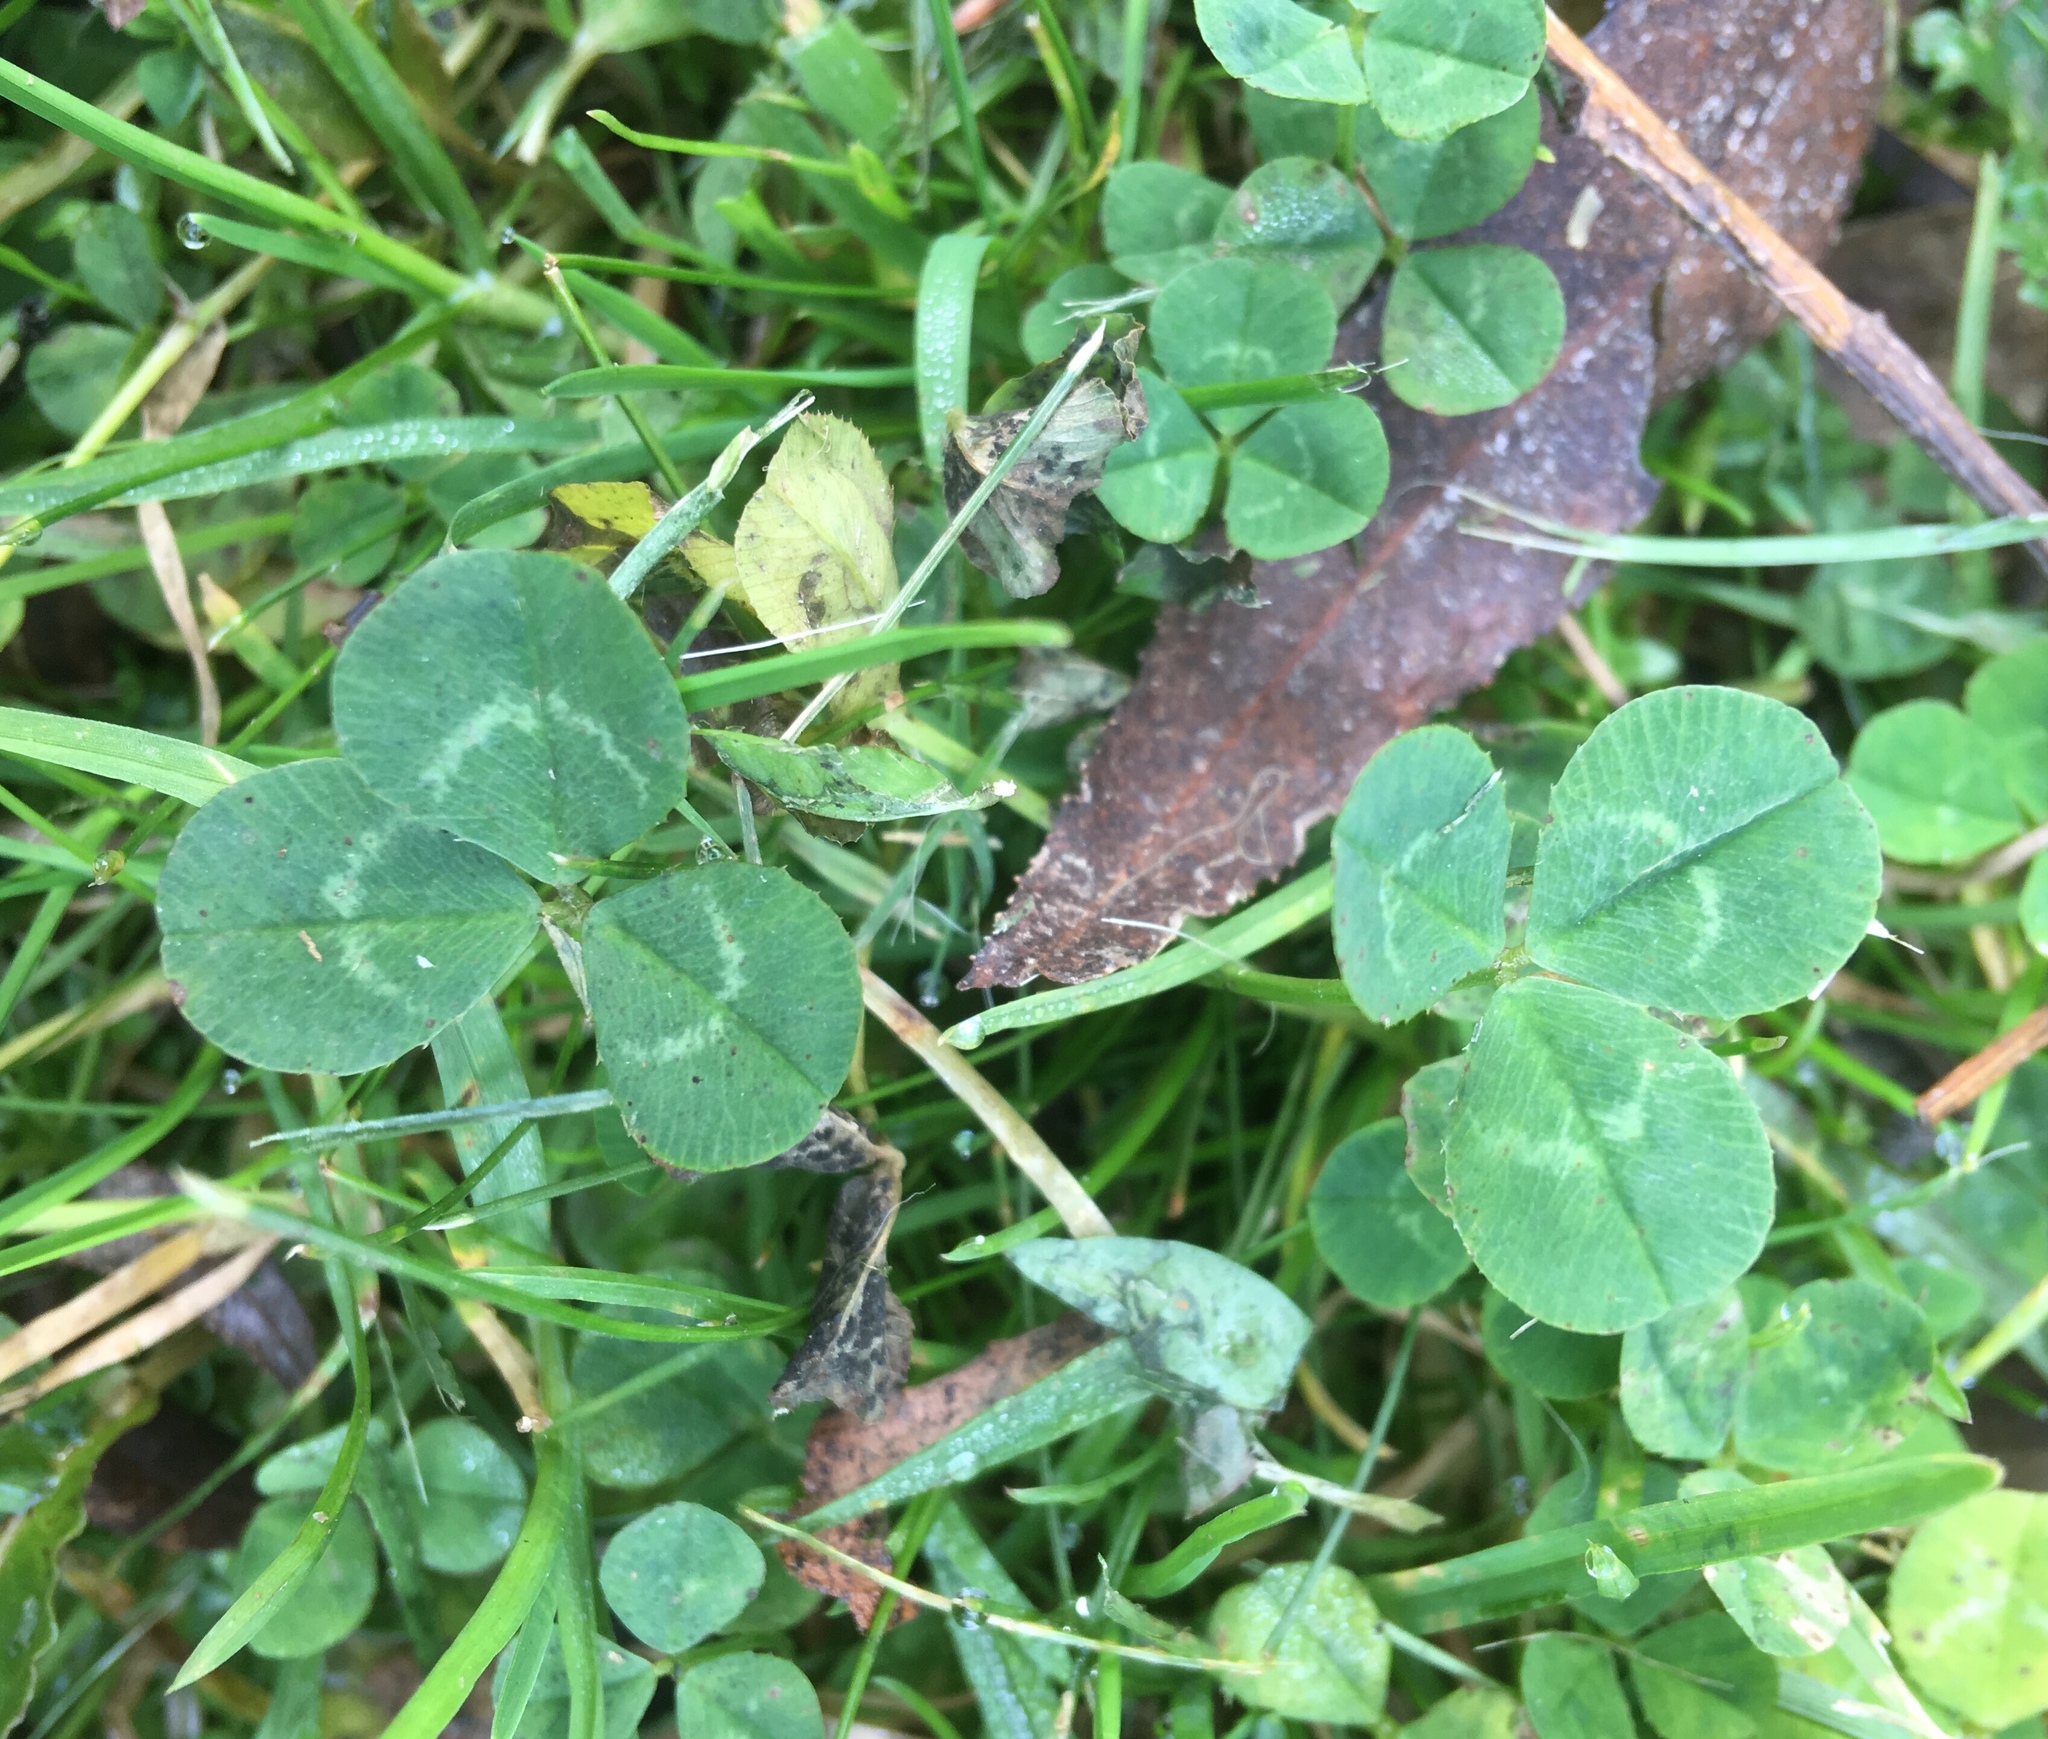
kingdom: Plantae
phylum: Tracheophyta
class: Magnoliopsida
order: Fabales
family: Fabaceae
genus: Trifolium
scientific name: Trifolium repens
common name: White clover
